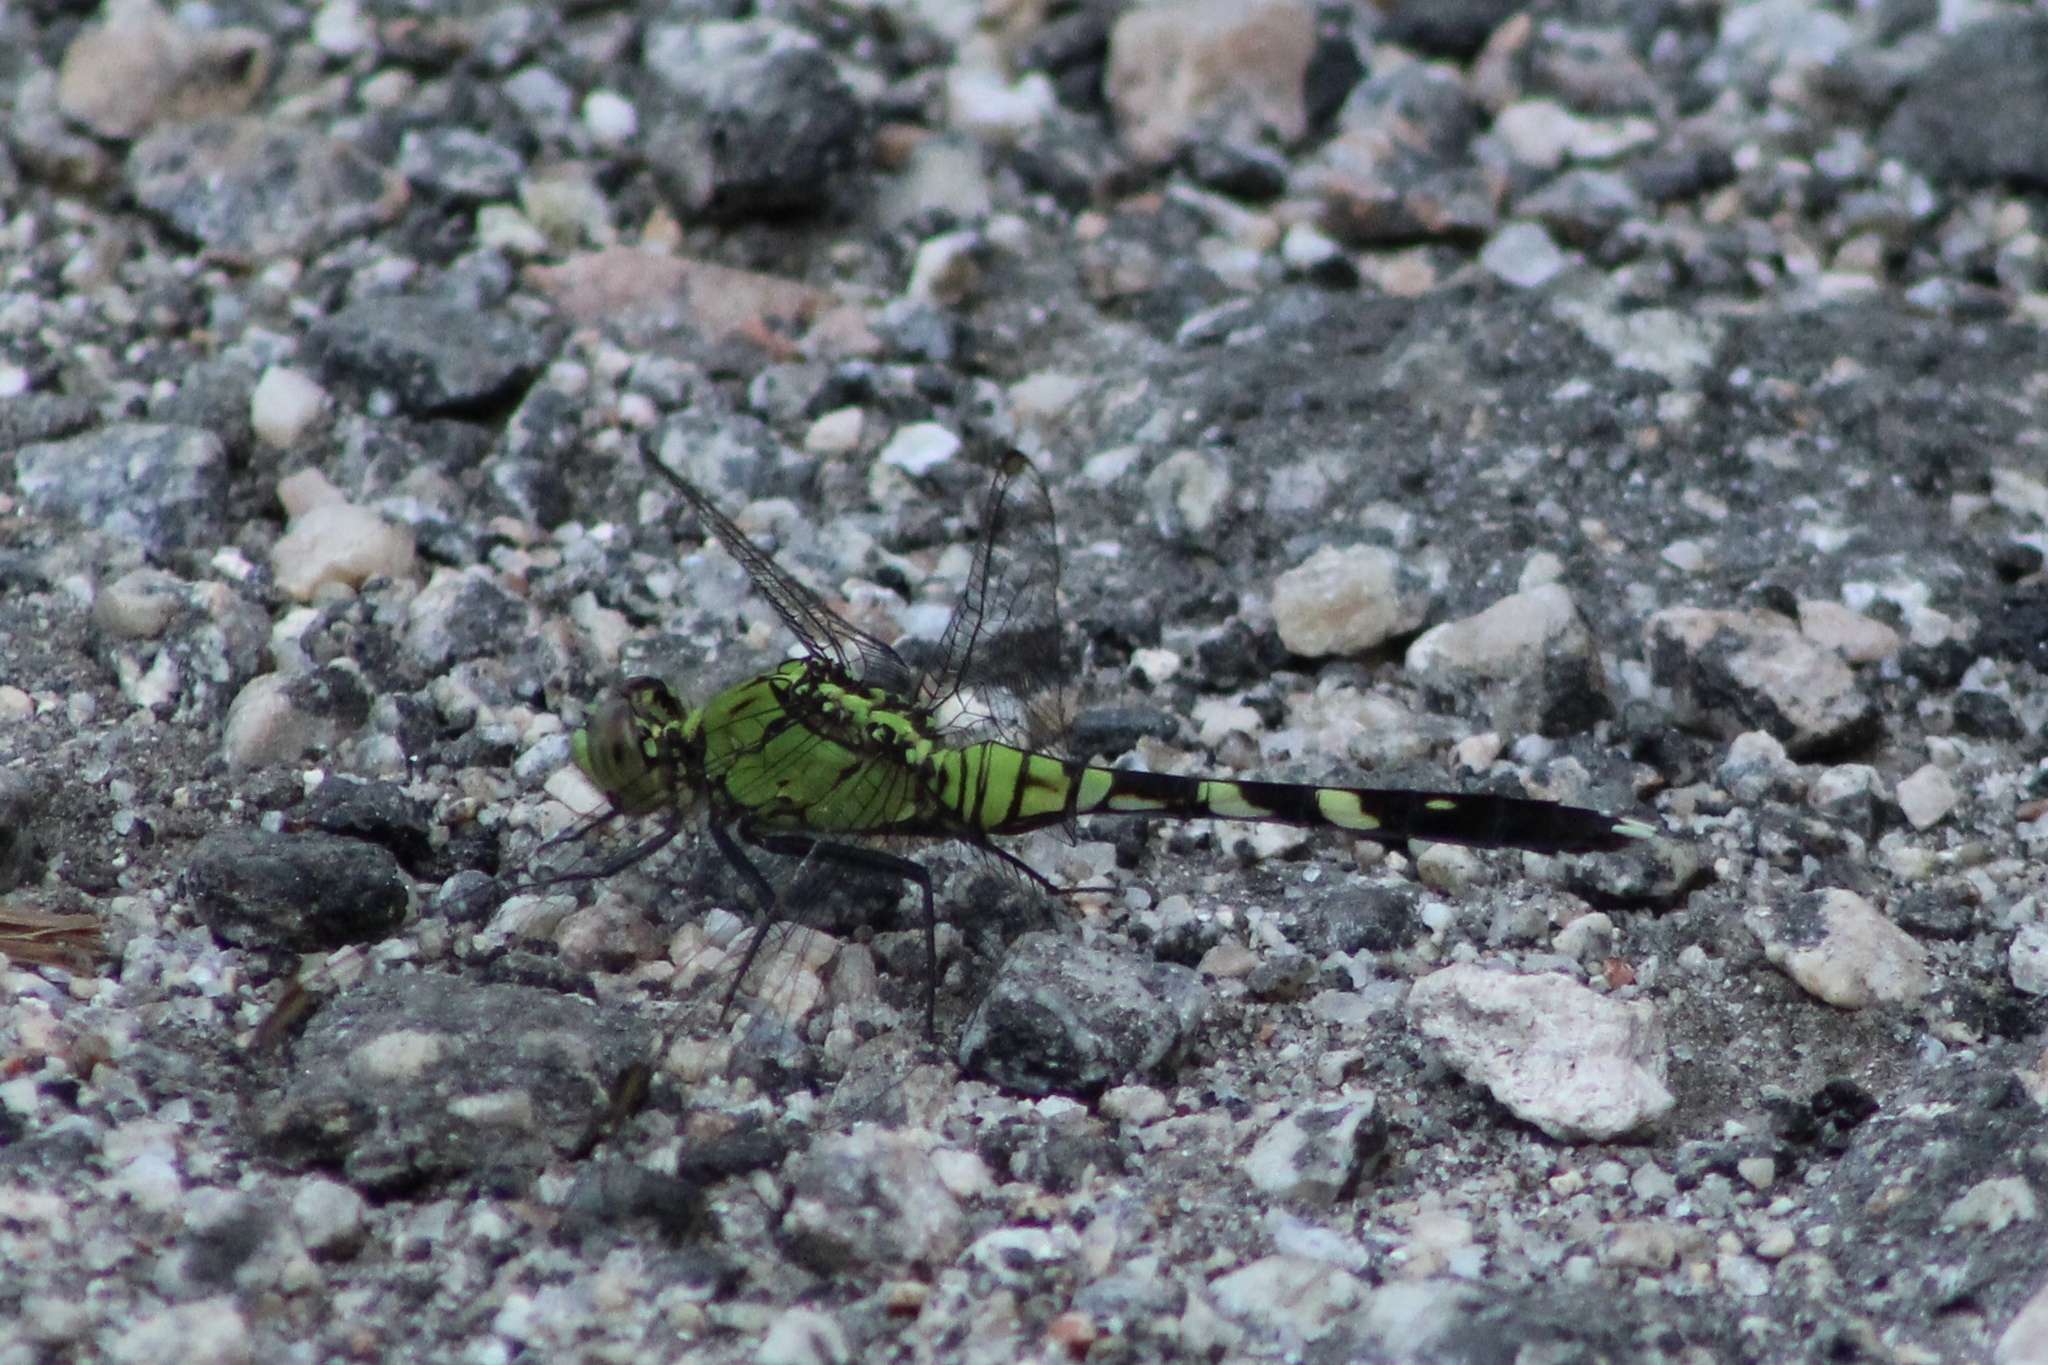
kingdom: Animalia
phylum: Arthropoda
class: Insecta
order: Odonata
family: Libellulidae
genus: Erythemis
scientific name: Erythemis simplicicollis
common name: Eastern pondhawk
